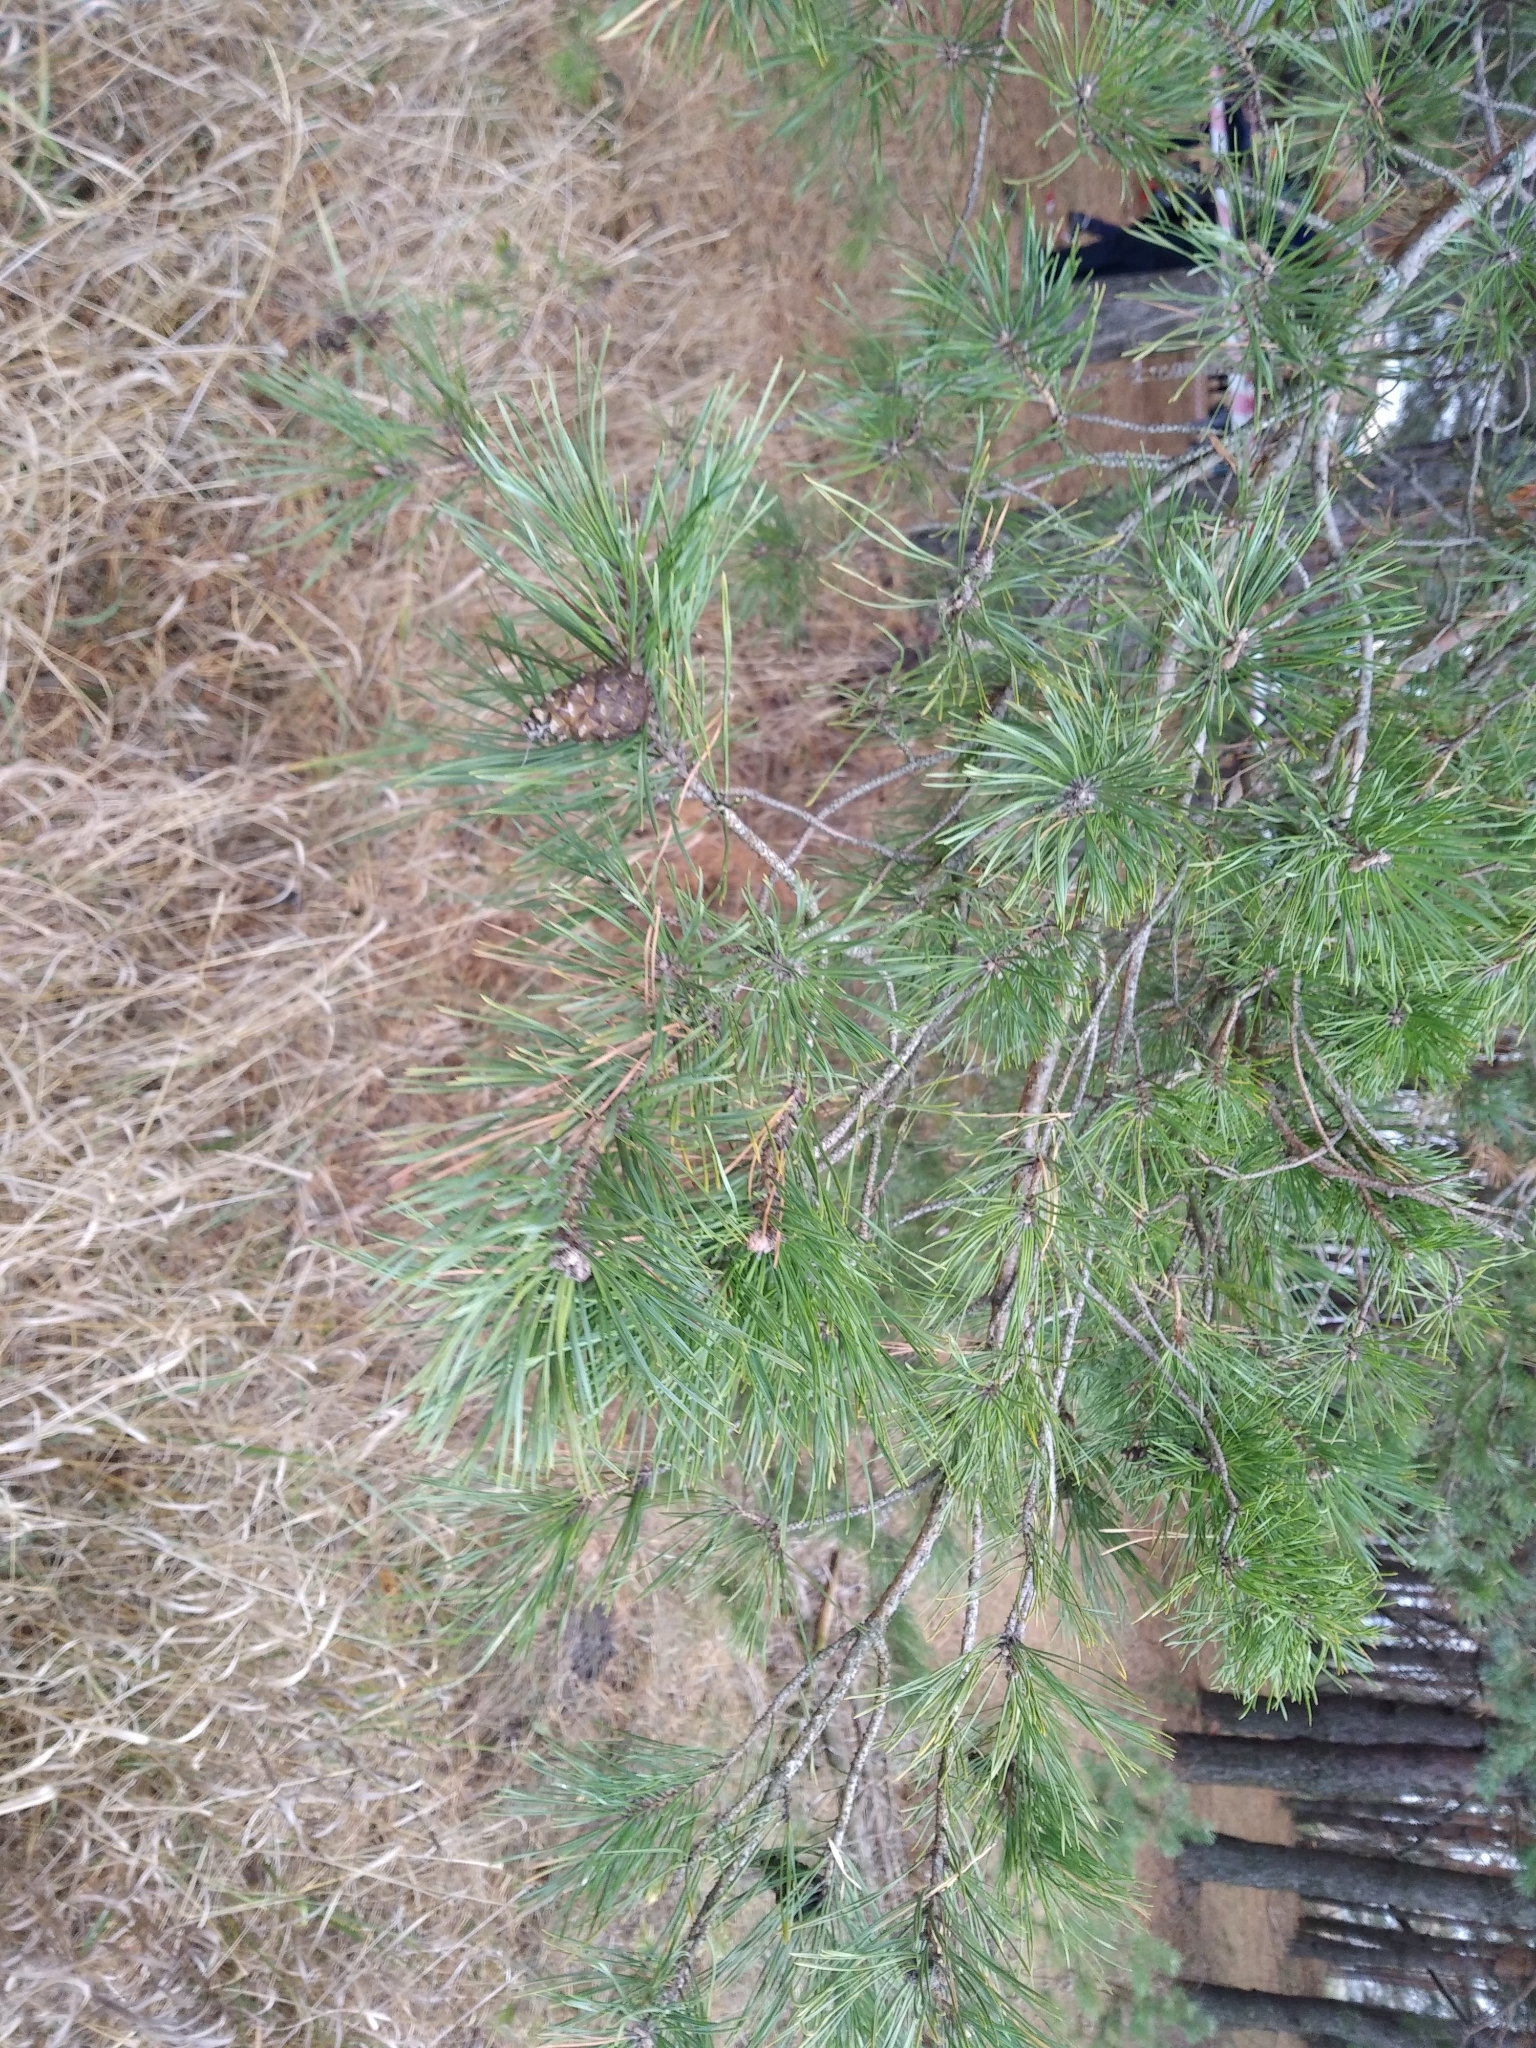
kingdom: Plantae
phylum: Tracheophyta
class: Pinopsida
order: Pinales
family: Pinaceae
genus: Pinus
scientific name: Pinus sylvestris
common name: Scots pine
